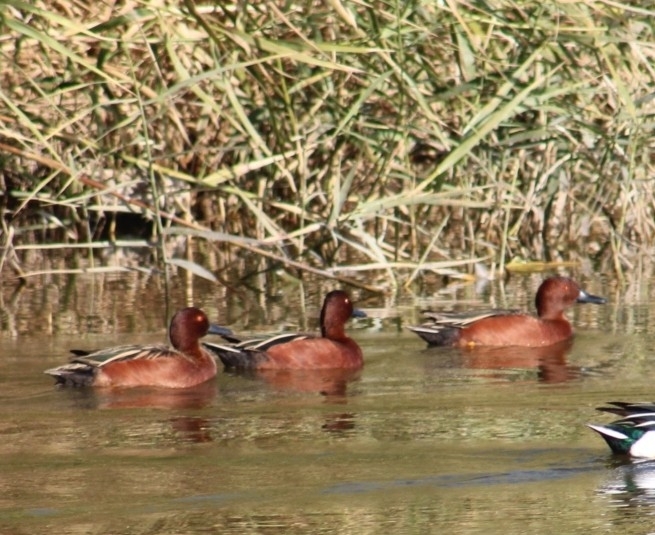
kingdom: Animalia
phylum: Chordata
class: Aves
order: Anseriformes
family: Anatidae
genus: Spatula
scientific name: Spatula cyanoptera
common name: Cinnamon teal
